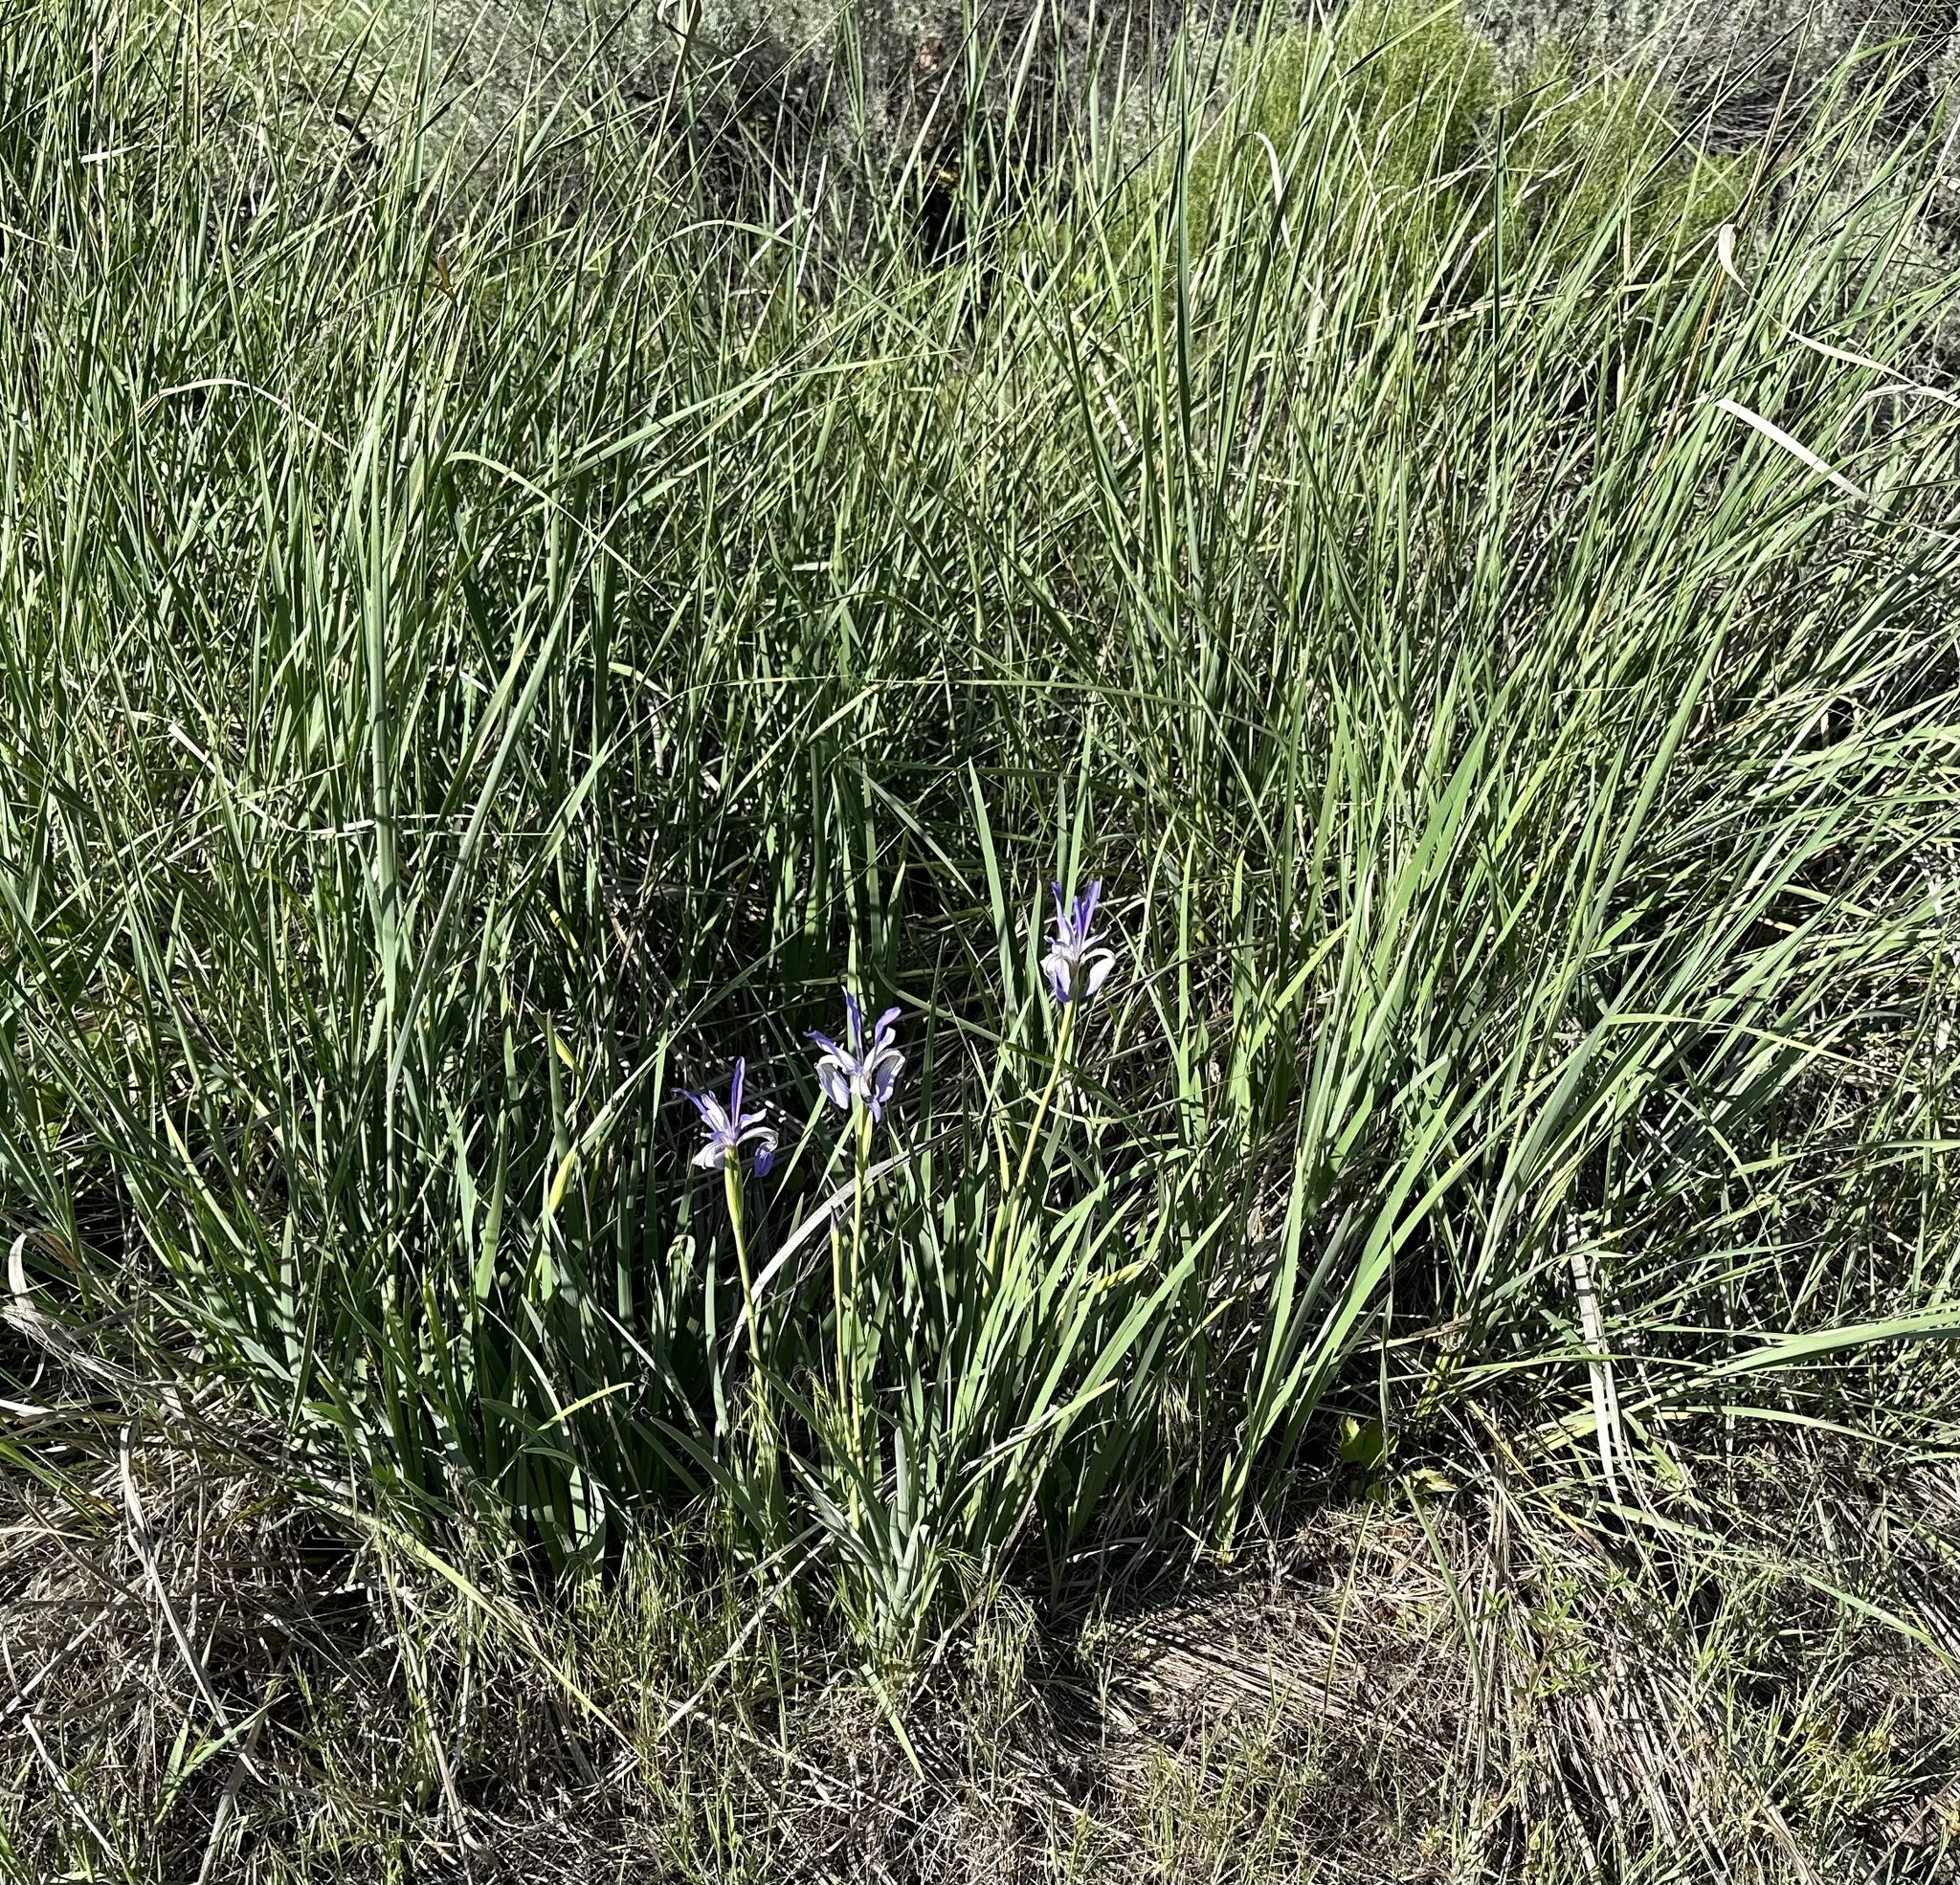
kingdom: Plantae
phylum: Tracheophyta
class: Liliopsida
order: Asparagales
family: Iridaceae
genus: Iris
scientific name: Iris missouriensis
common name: Rocky mountain iris
